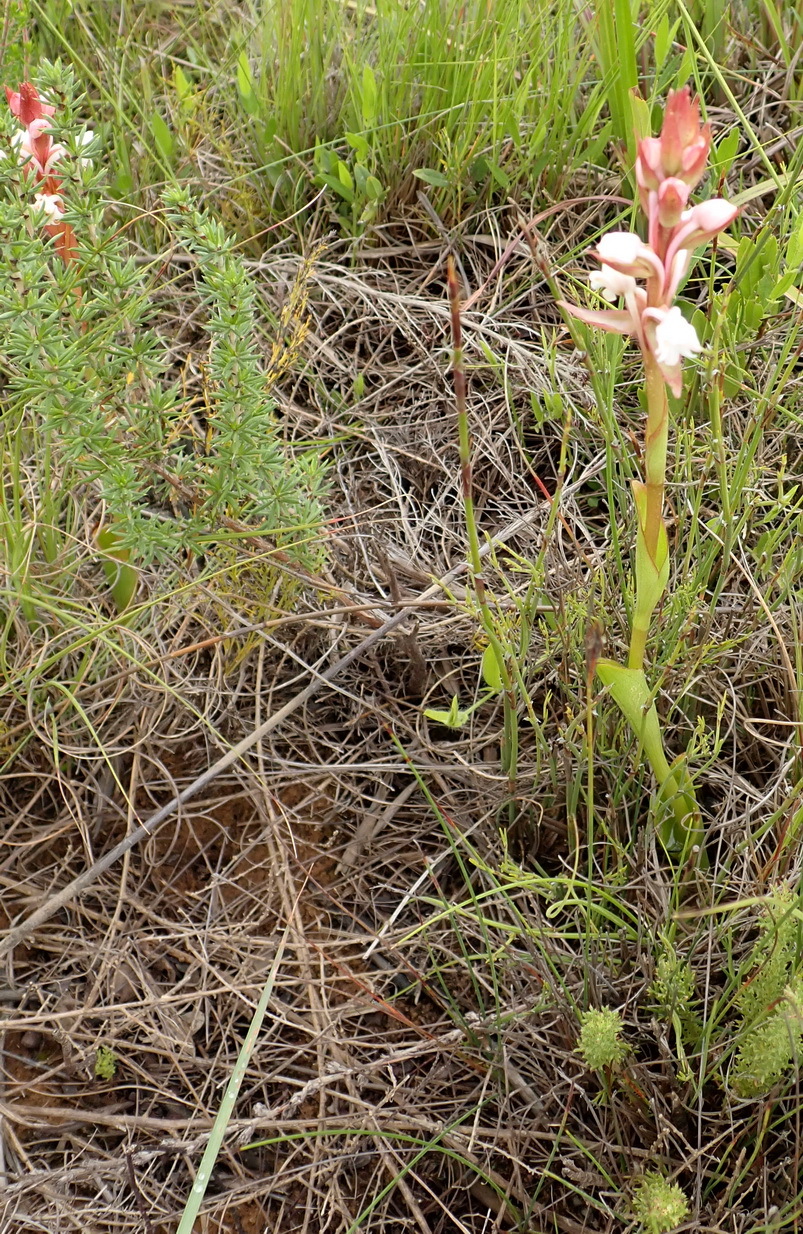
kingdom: Plantae
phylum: Tracheophyta
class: Liliopsida
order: Asparagales
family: Orchidaceae
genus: Satyrium
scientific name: Satyrium acuminatum
